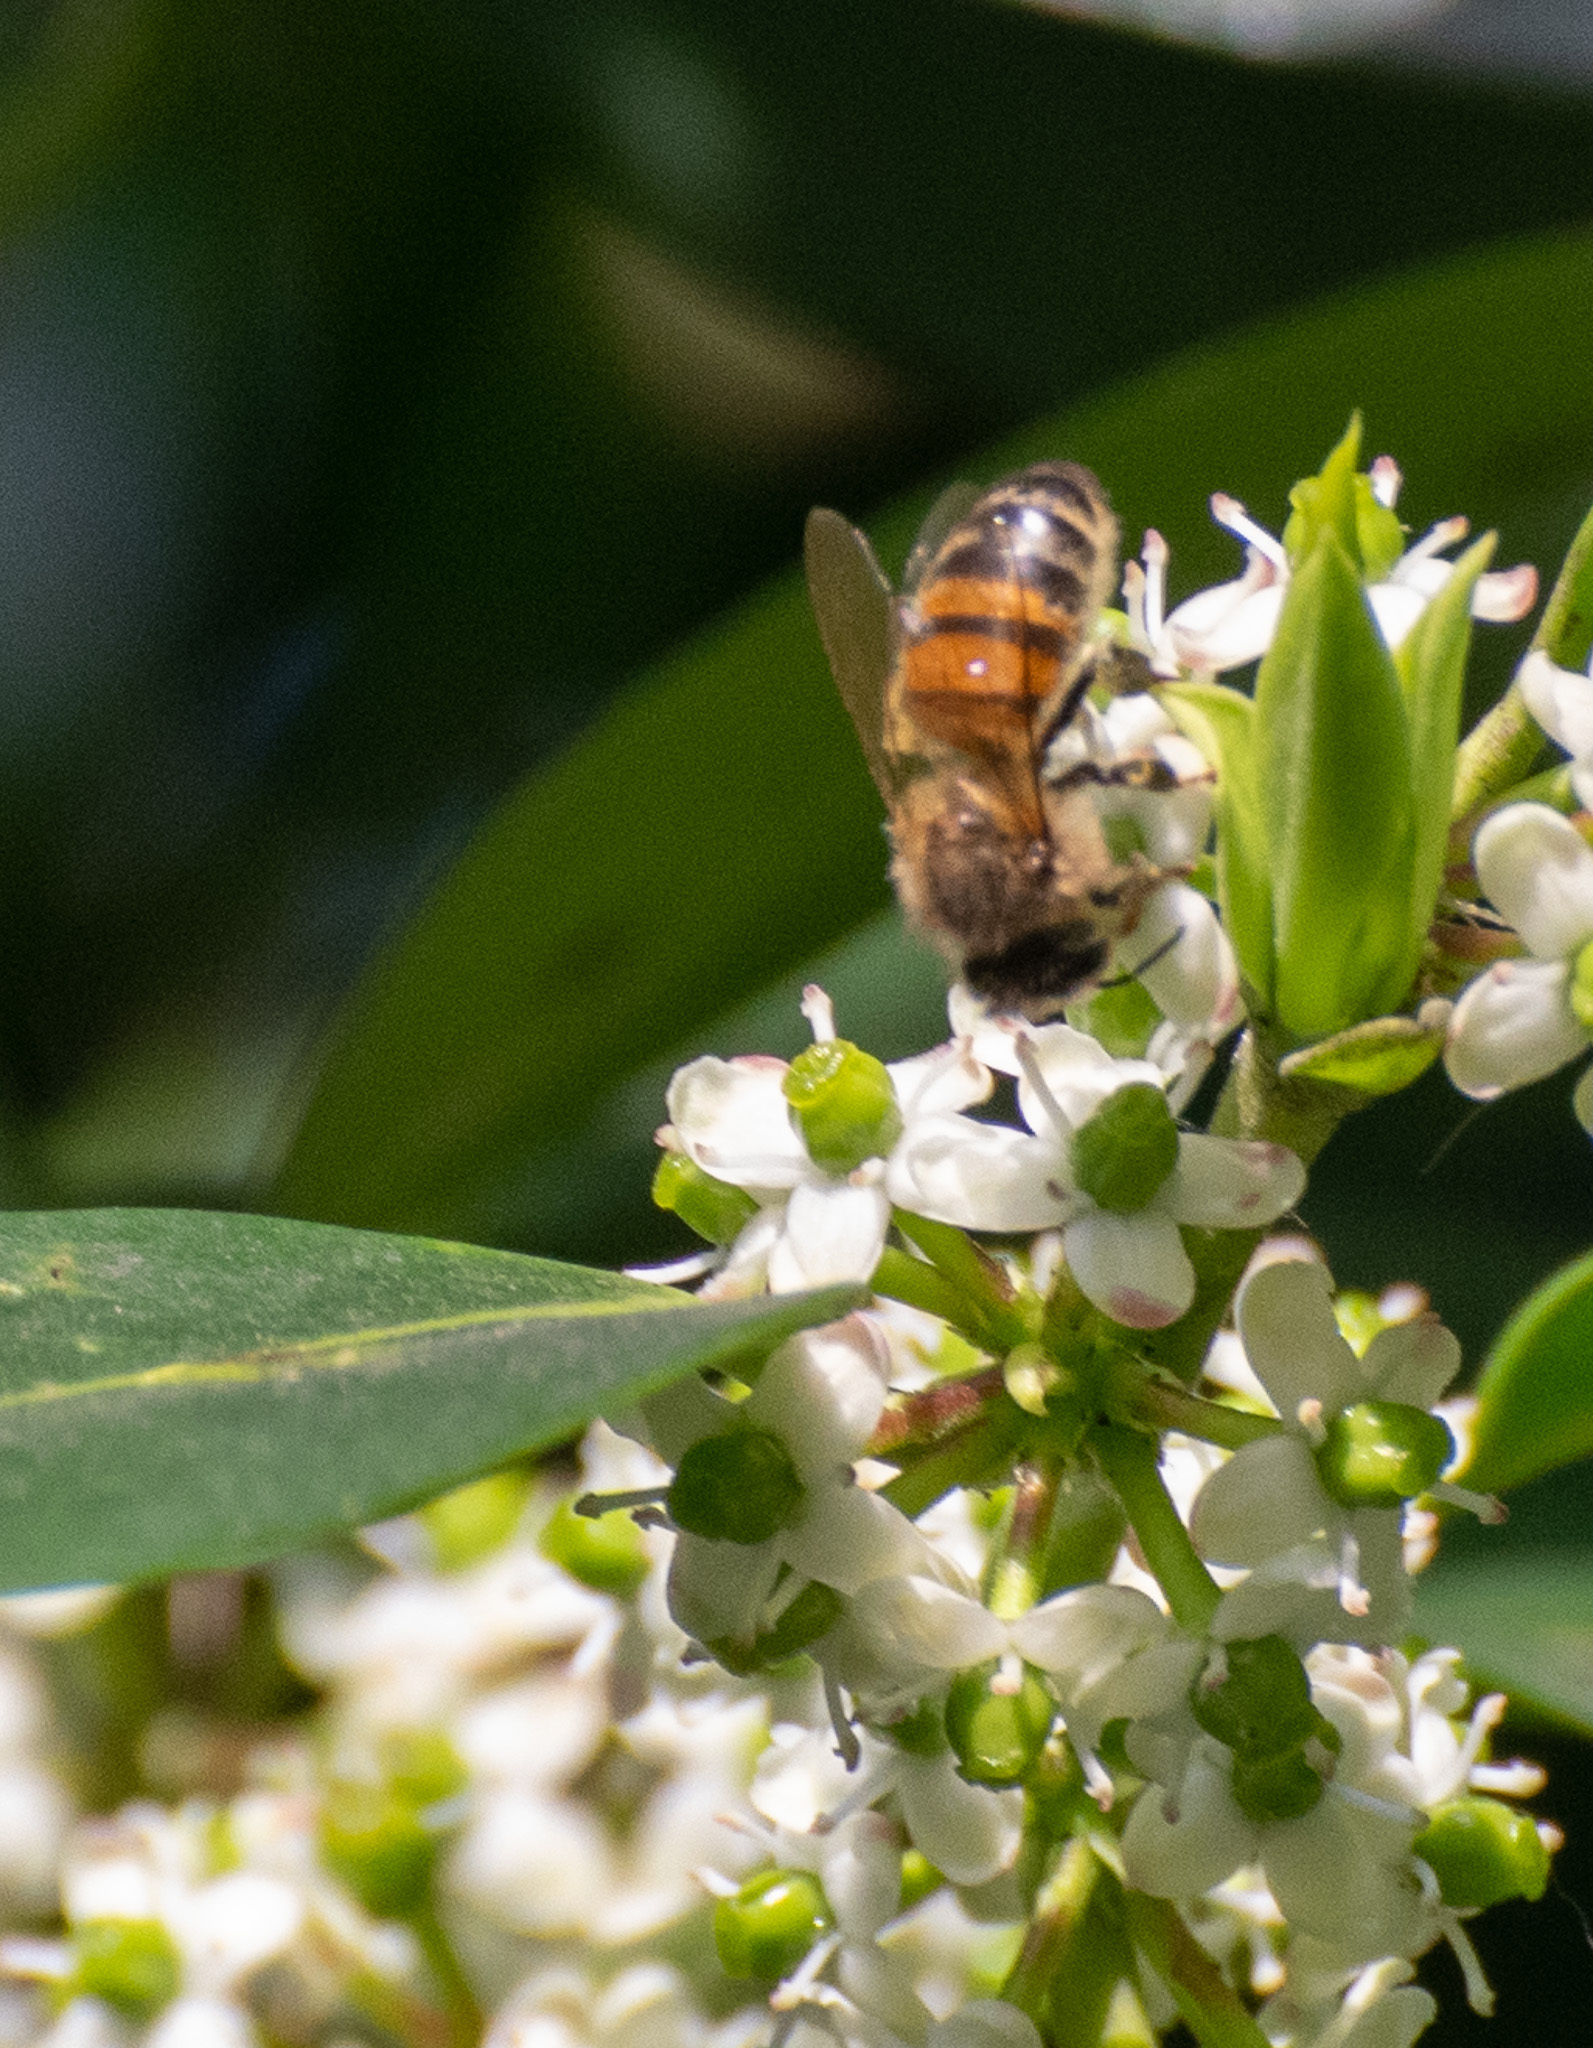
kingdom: Animalia
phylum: Arthropoda
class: Insecta
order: Hymenoptera
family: Apidae
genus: Apis
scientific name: Apis mellifera
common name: Honey bee
